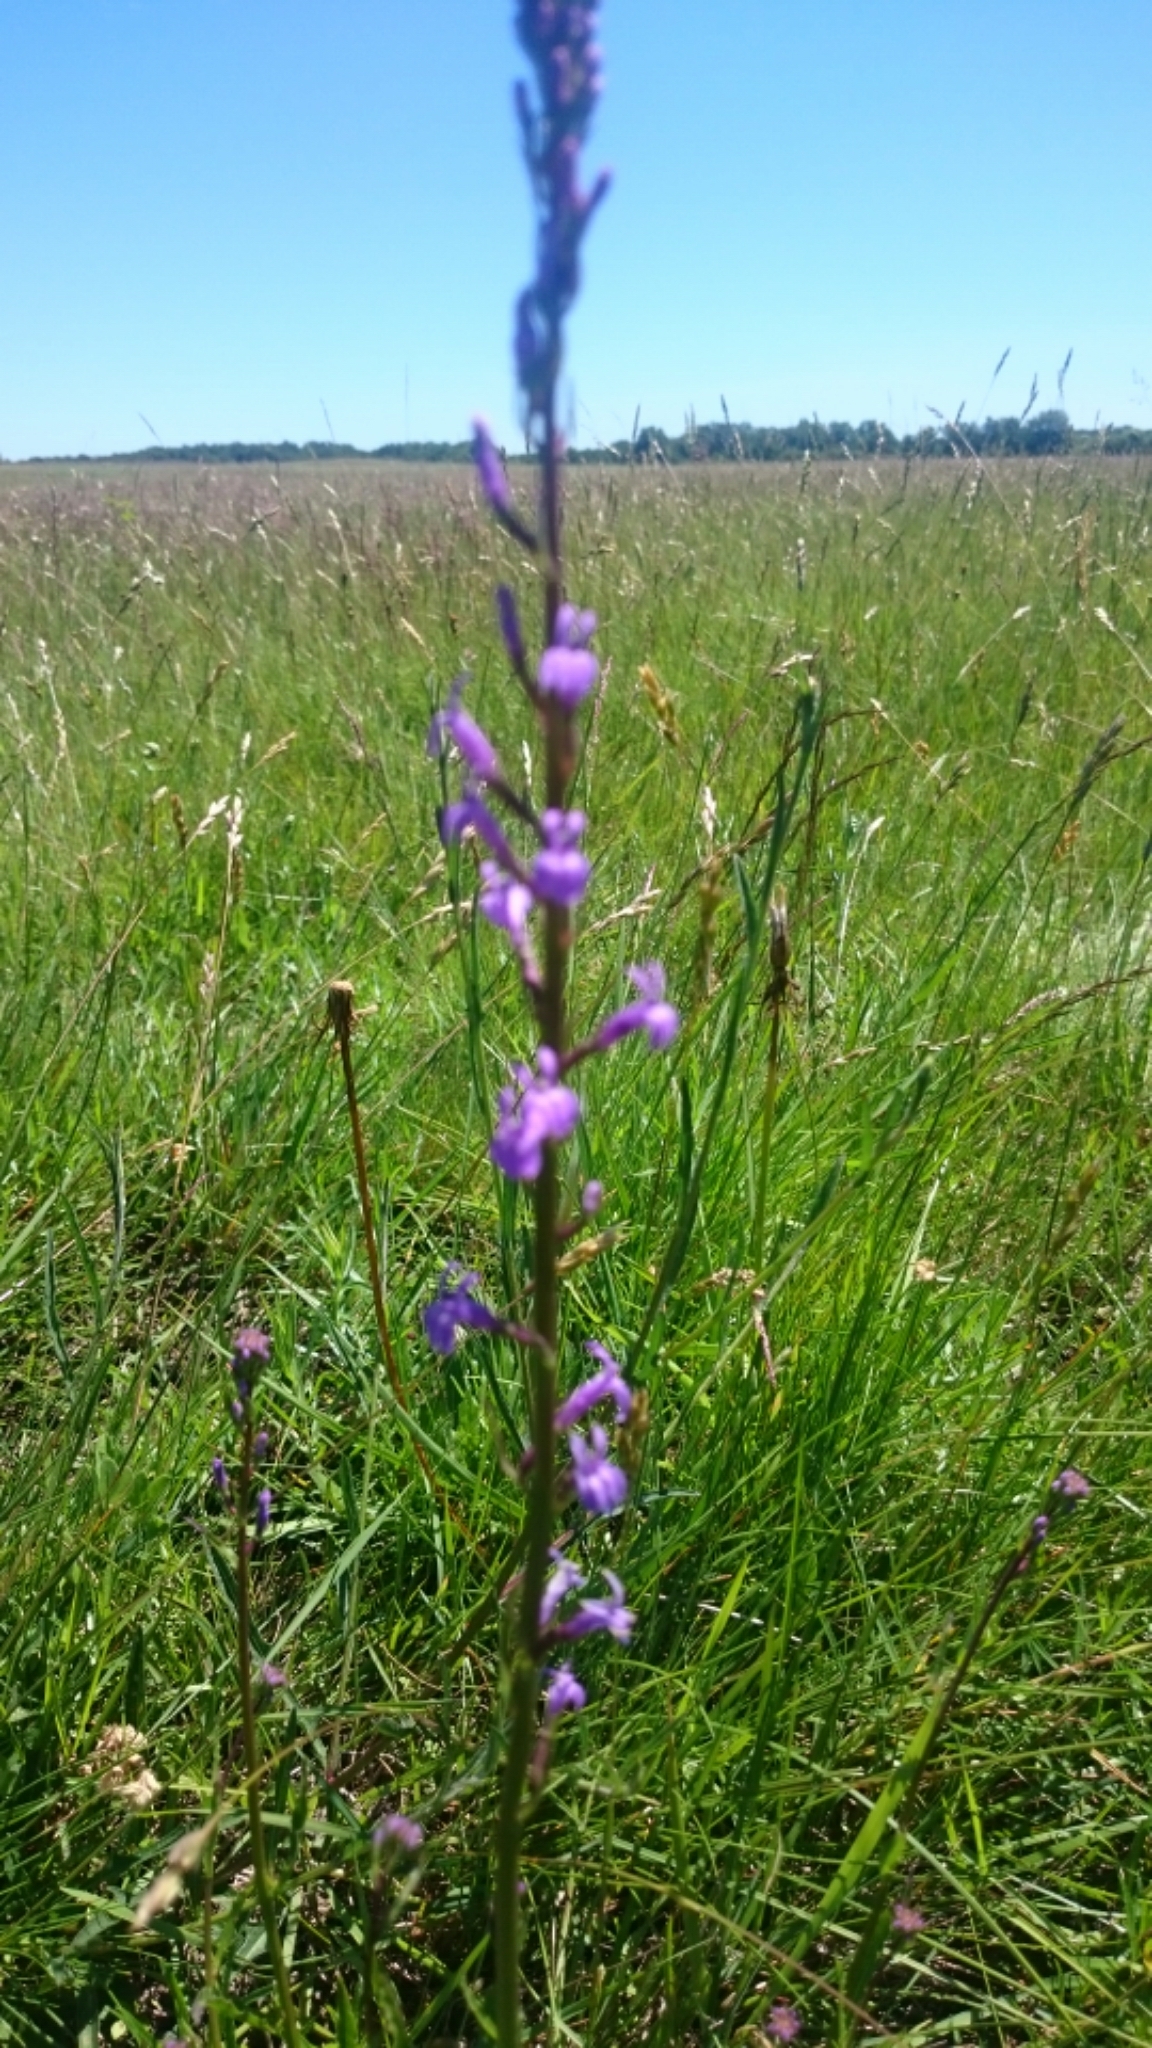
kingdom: Plantae
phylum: Tracheophyta
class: Magnoliopsida
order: Asterales
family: Campanulaceae
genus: Lobelia
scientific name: Lobelia urens
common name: Heath lobelia
